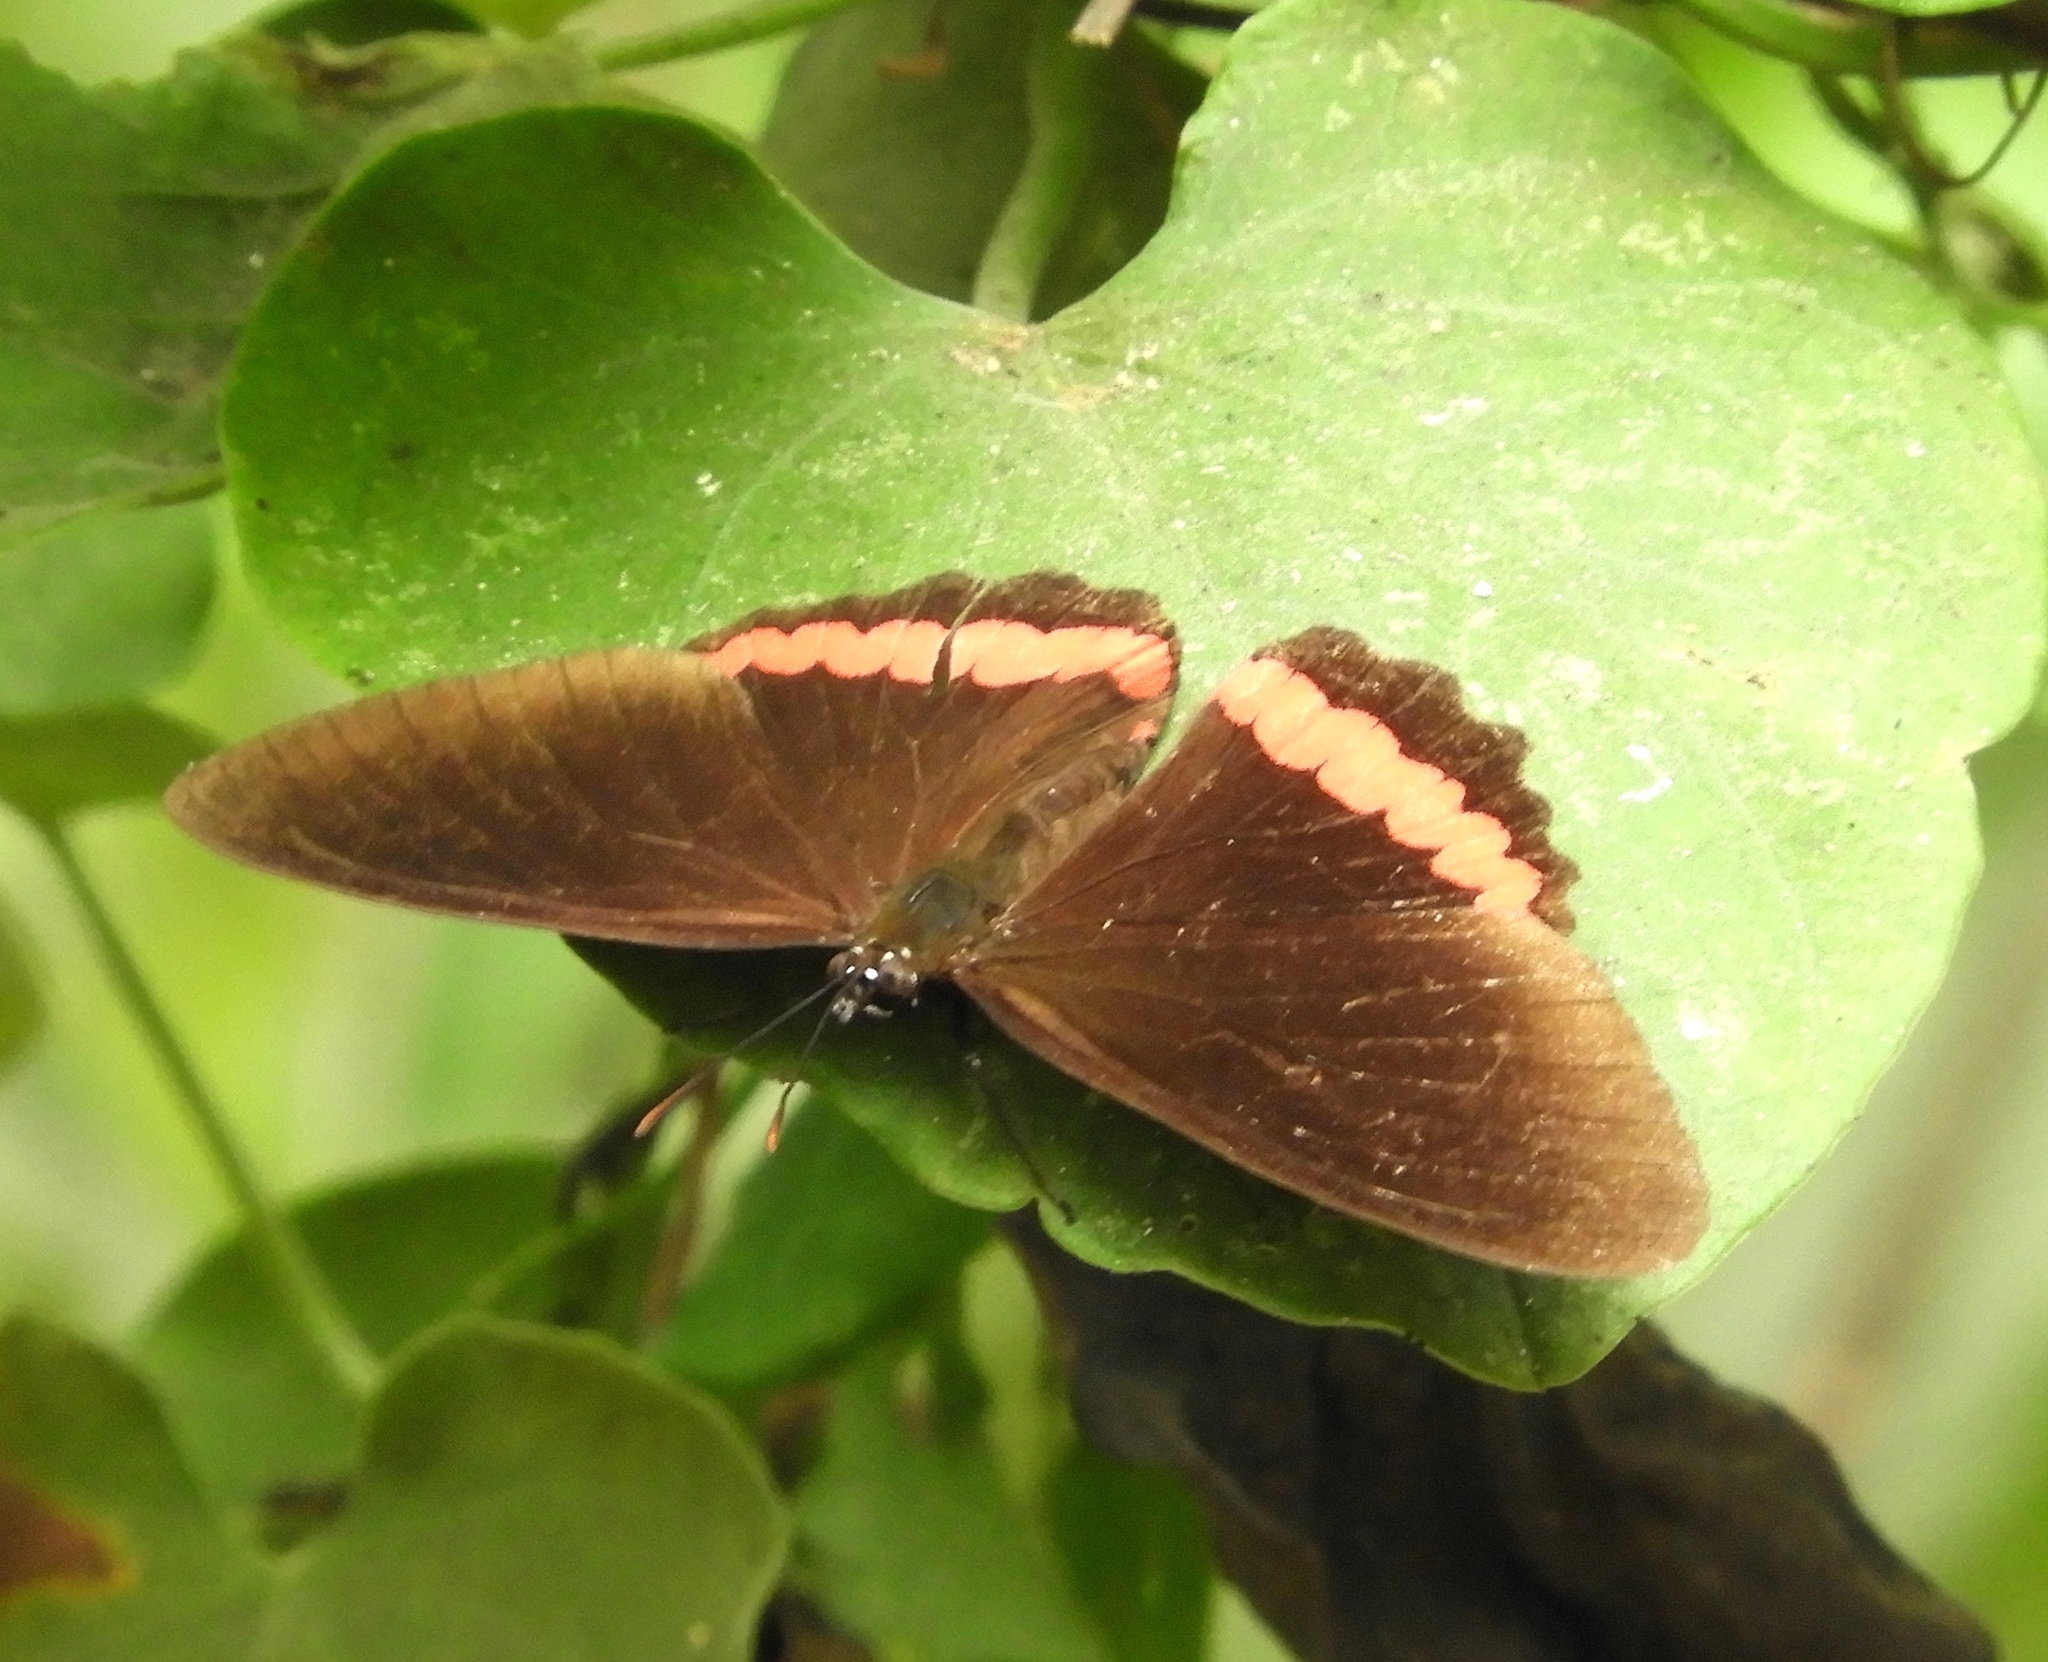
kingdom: Animalia
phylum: Arthropoda
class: Insecta
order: Lepidoptera
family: Nymphalidae
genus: Biblis
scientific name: Biblis aganisa
